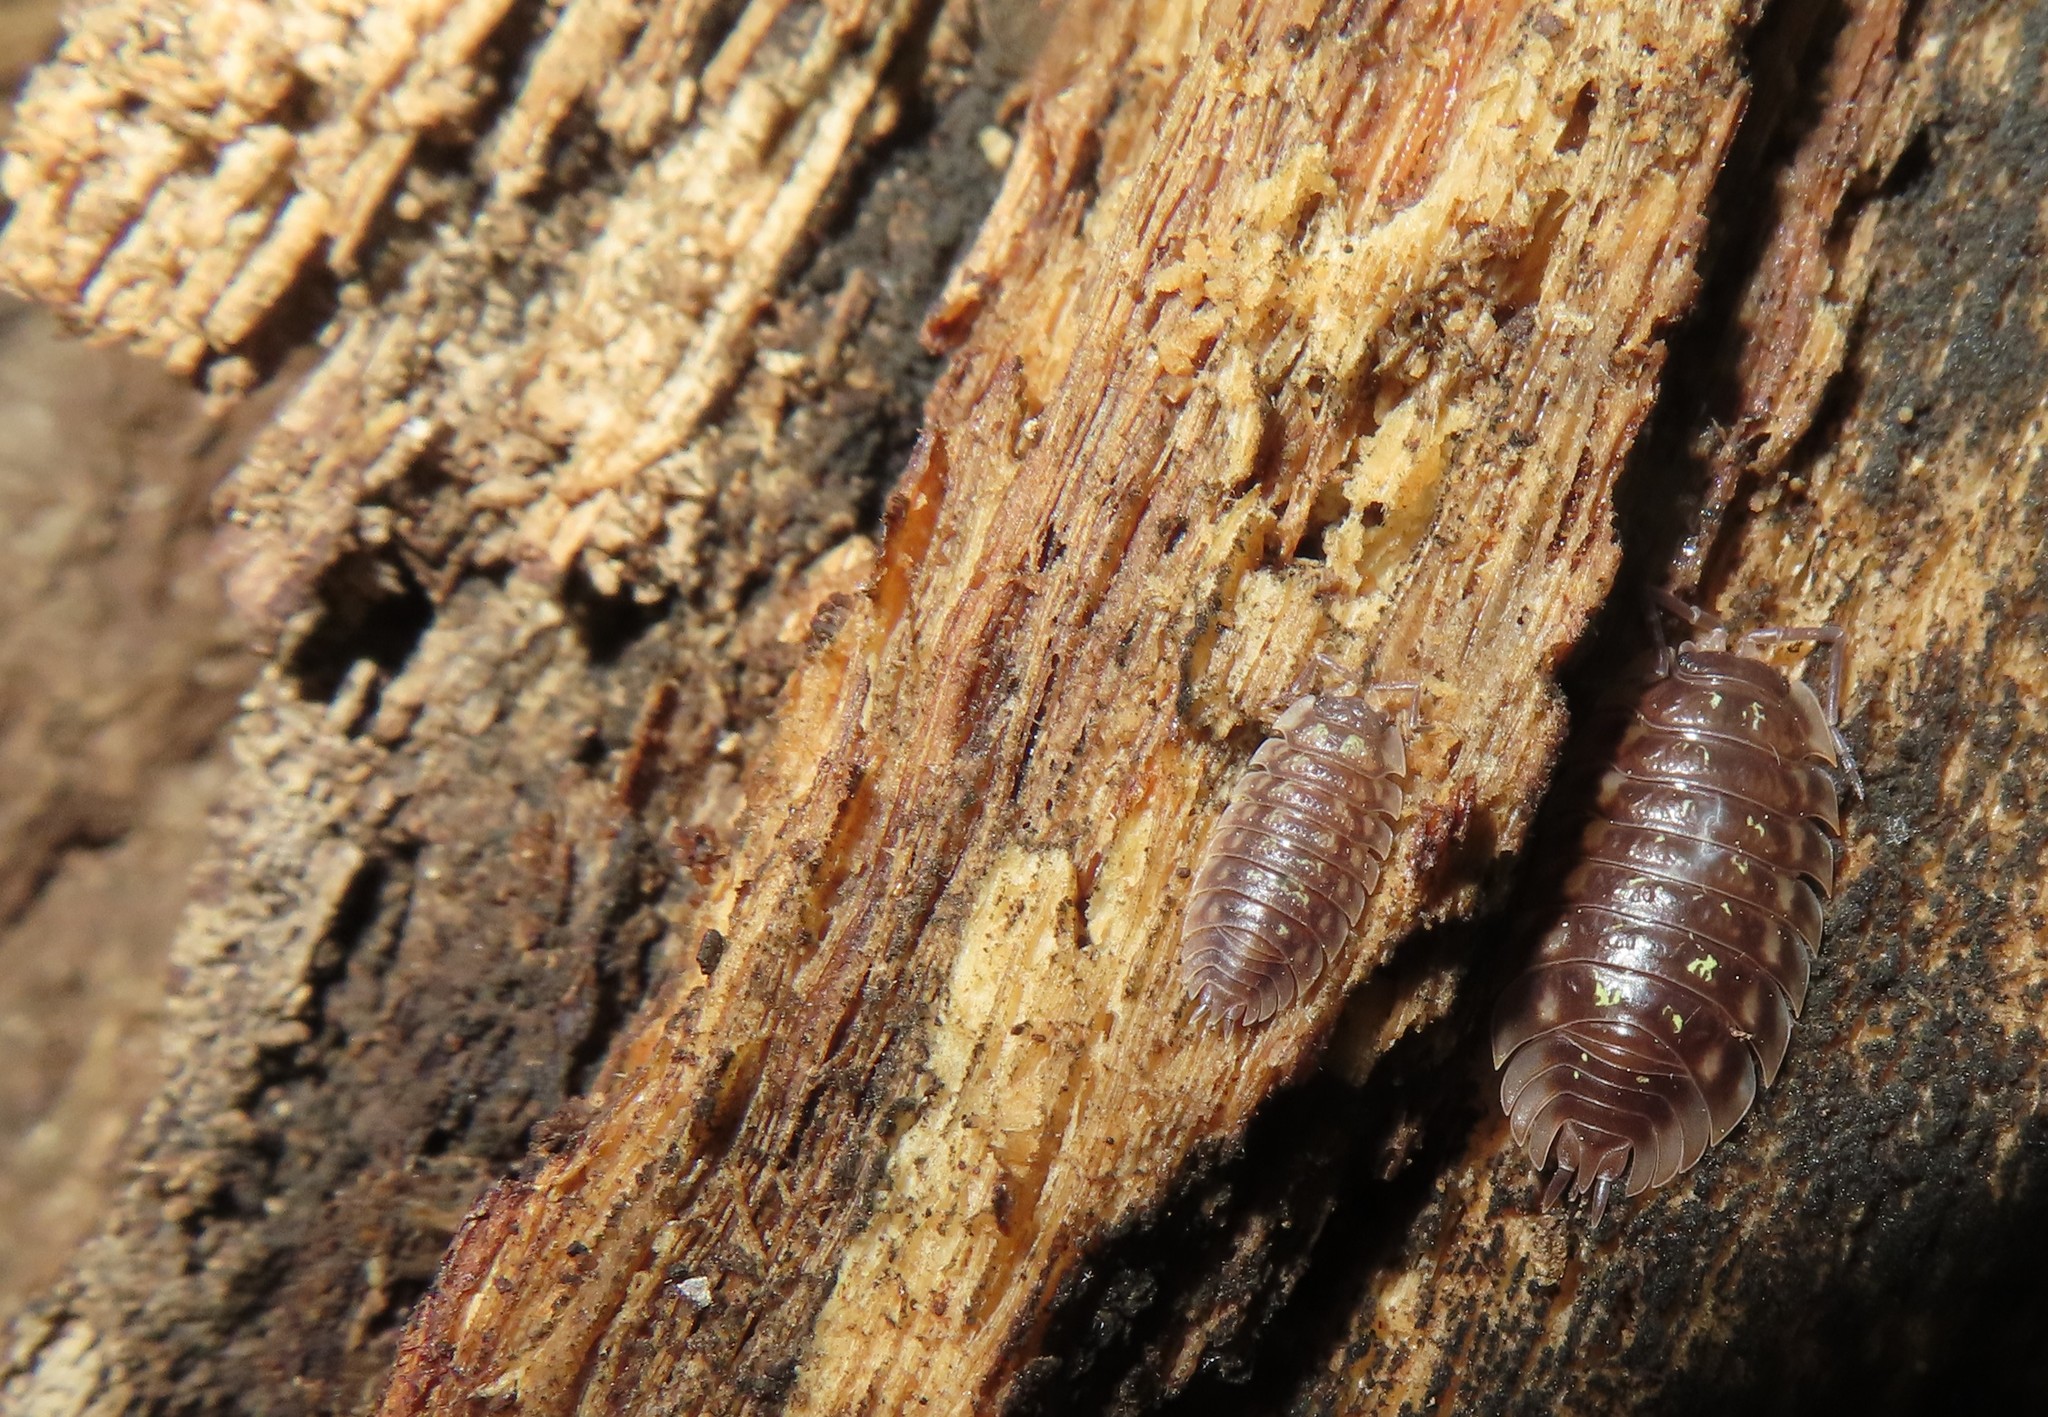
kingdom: Animalia
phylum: Arthropoda
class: Malacostraca
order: Isopoda
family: Oniscidae
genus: Oniscus
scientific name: Oniscus asellus
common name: Common shiny woodlouse
